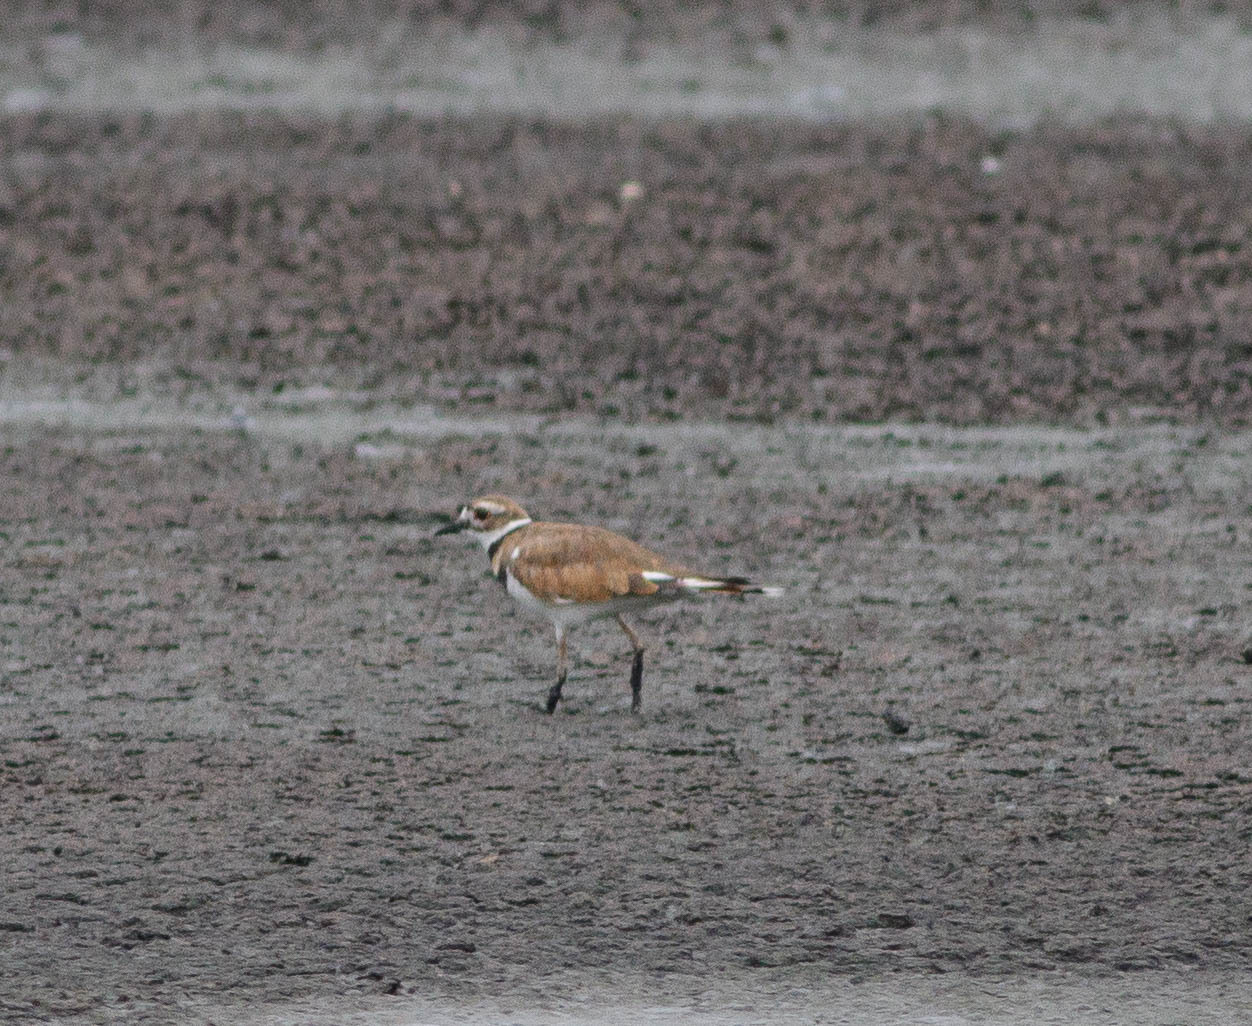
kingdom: Animalia
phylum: Chordata
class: Aves
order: Charadriiformes
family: Charadriidae
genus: Charadrius
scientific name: Charadrius vociferus
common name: Killdeer
